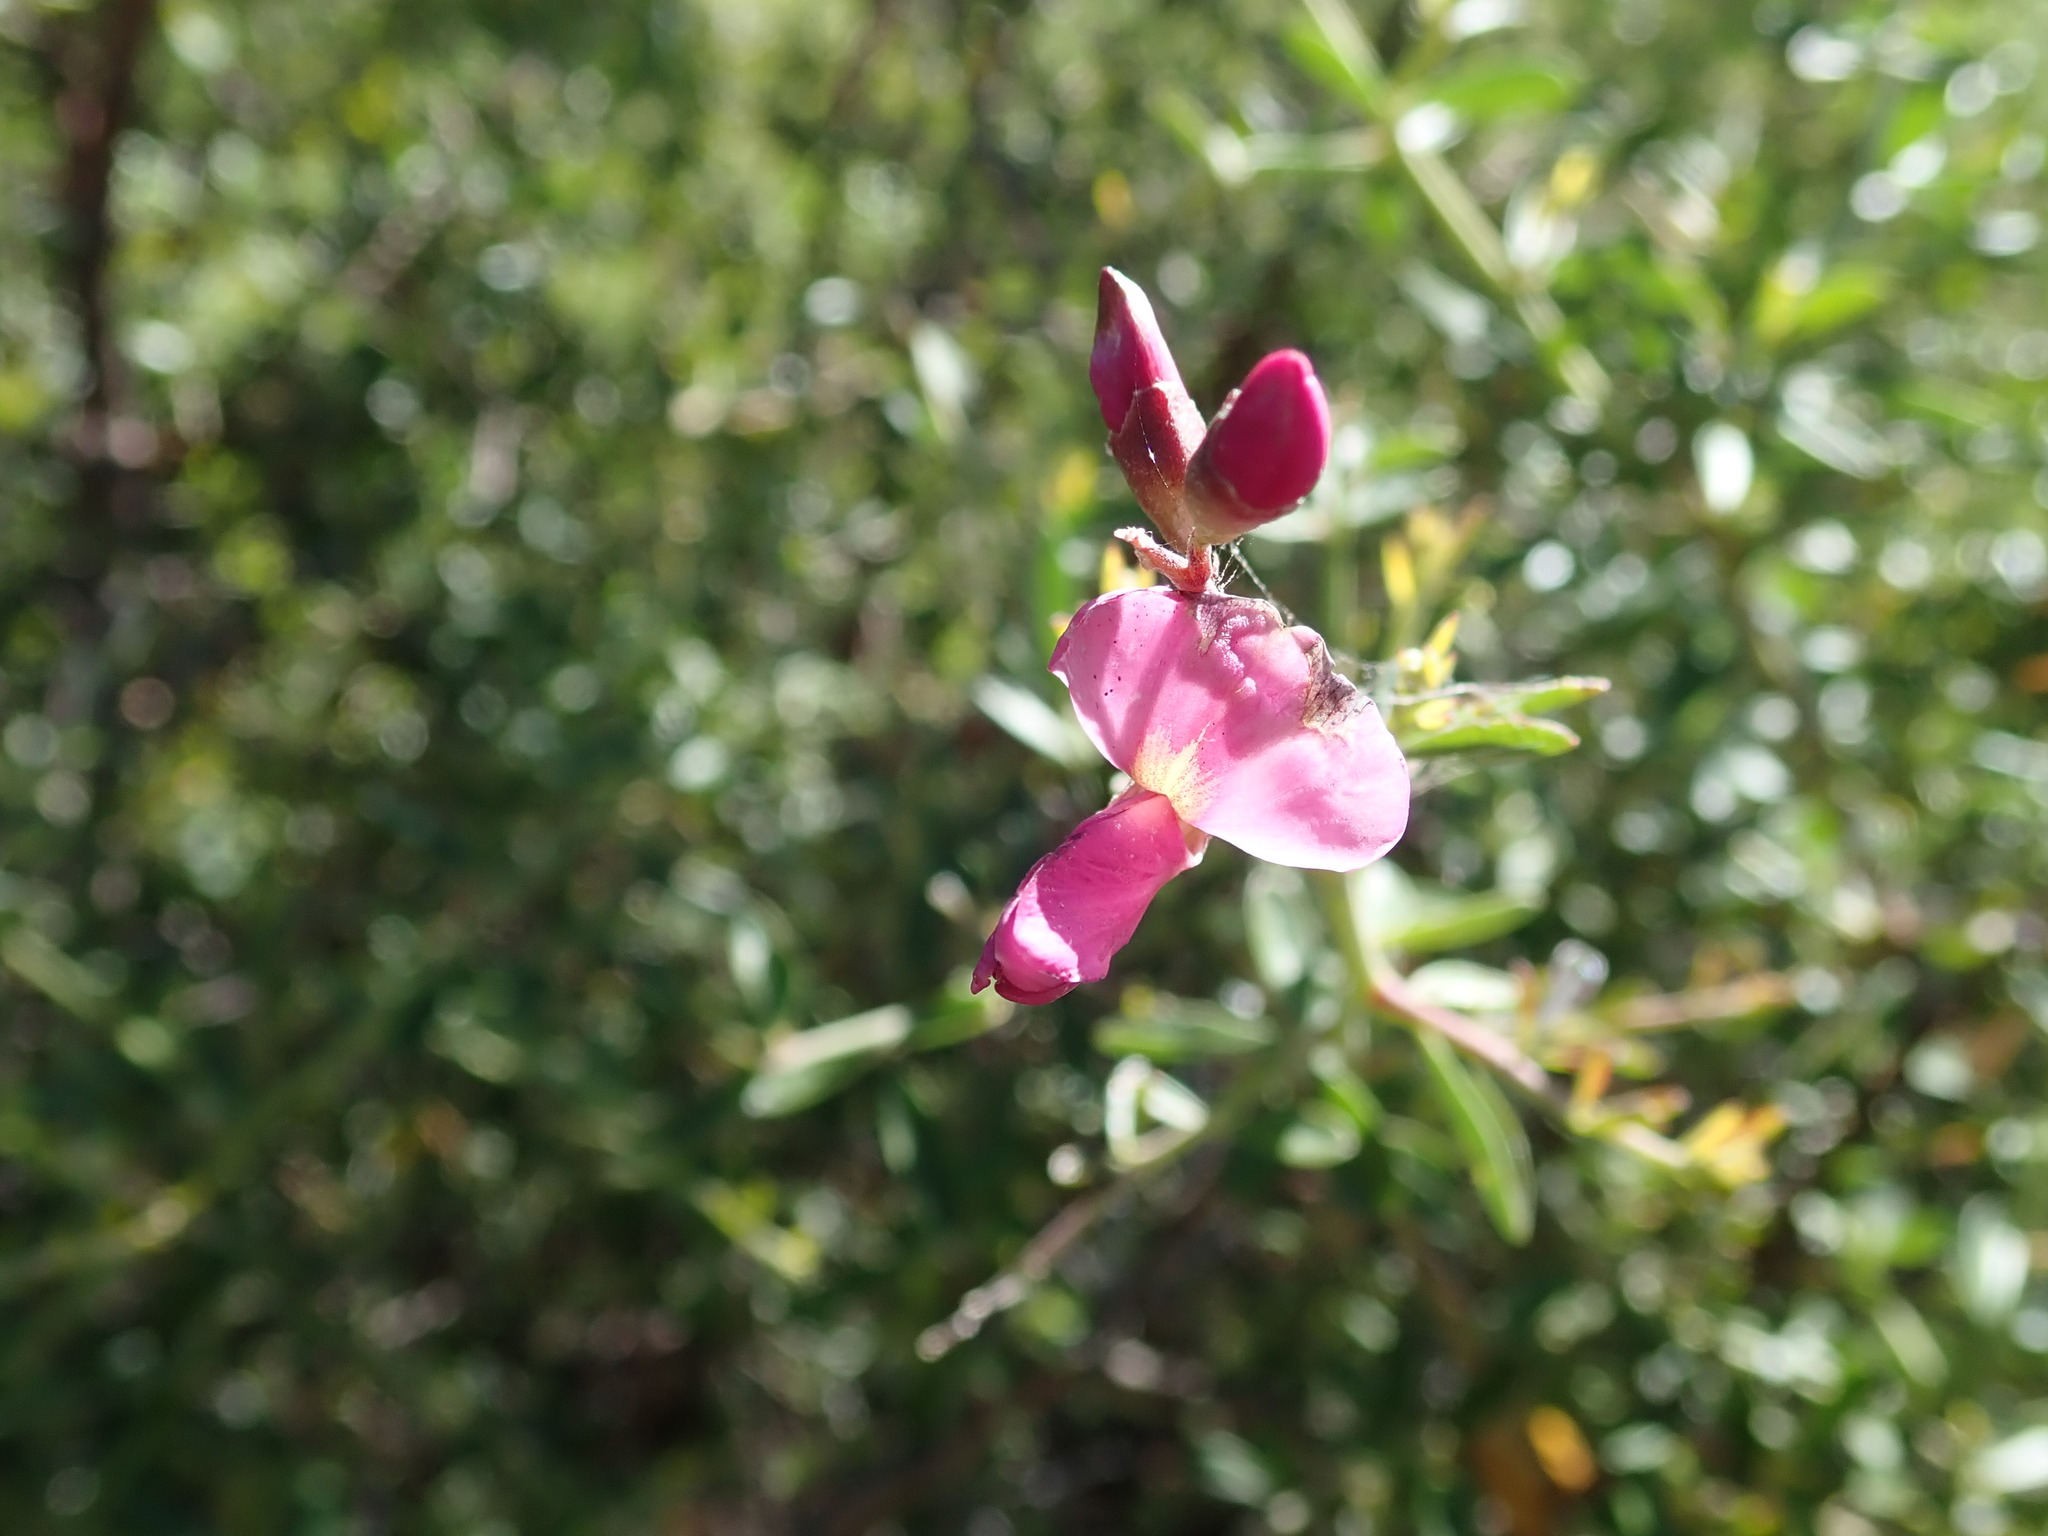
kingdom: Plantae
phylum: Tracheophyta
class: Magnoliopsida
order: Fabales
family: Fabaceae
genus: Pickeringia
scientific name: Pickeringia montana
